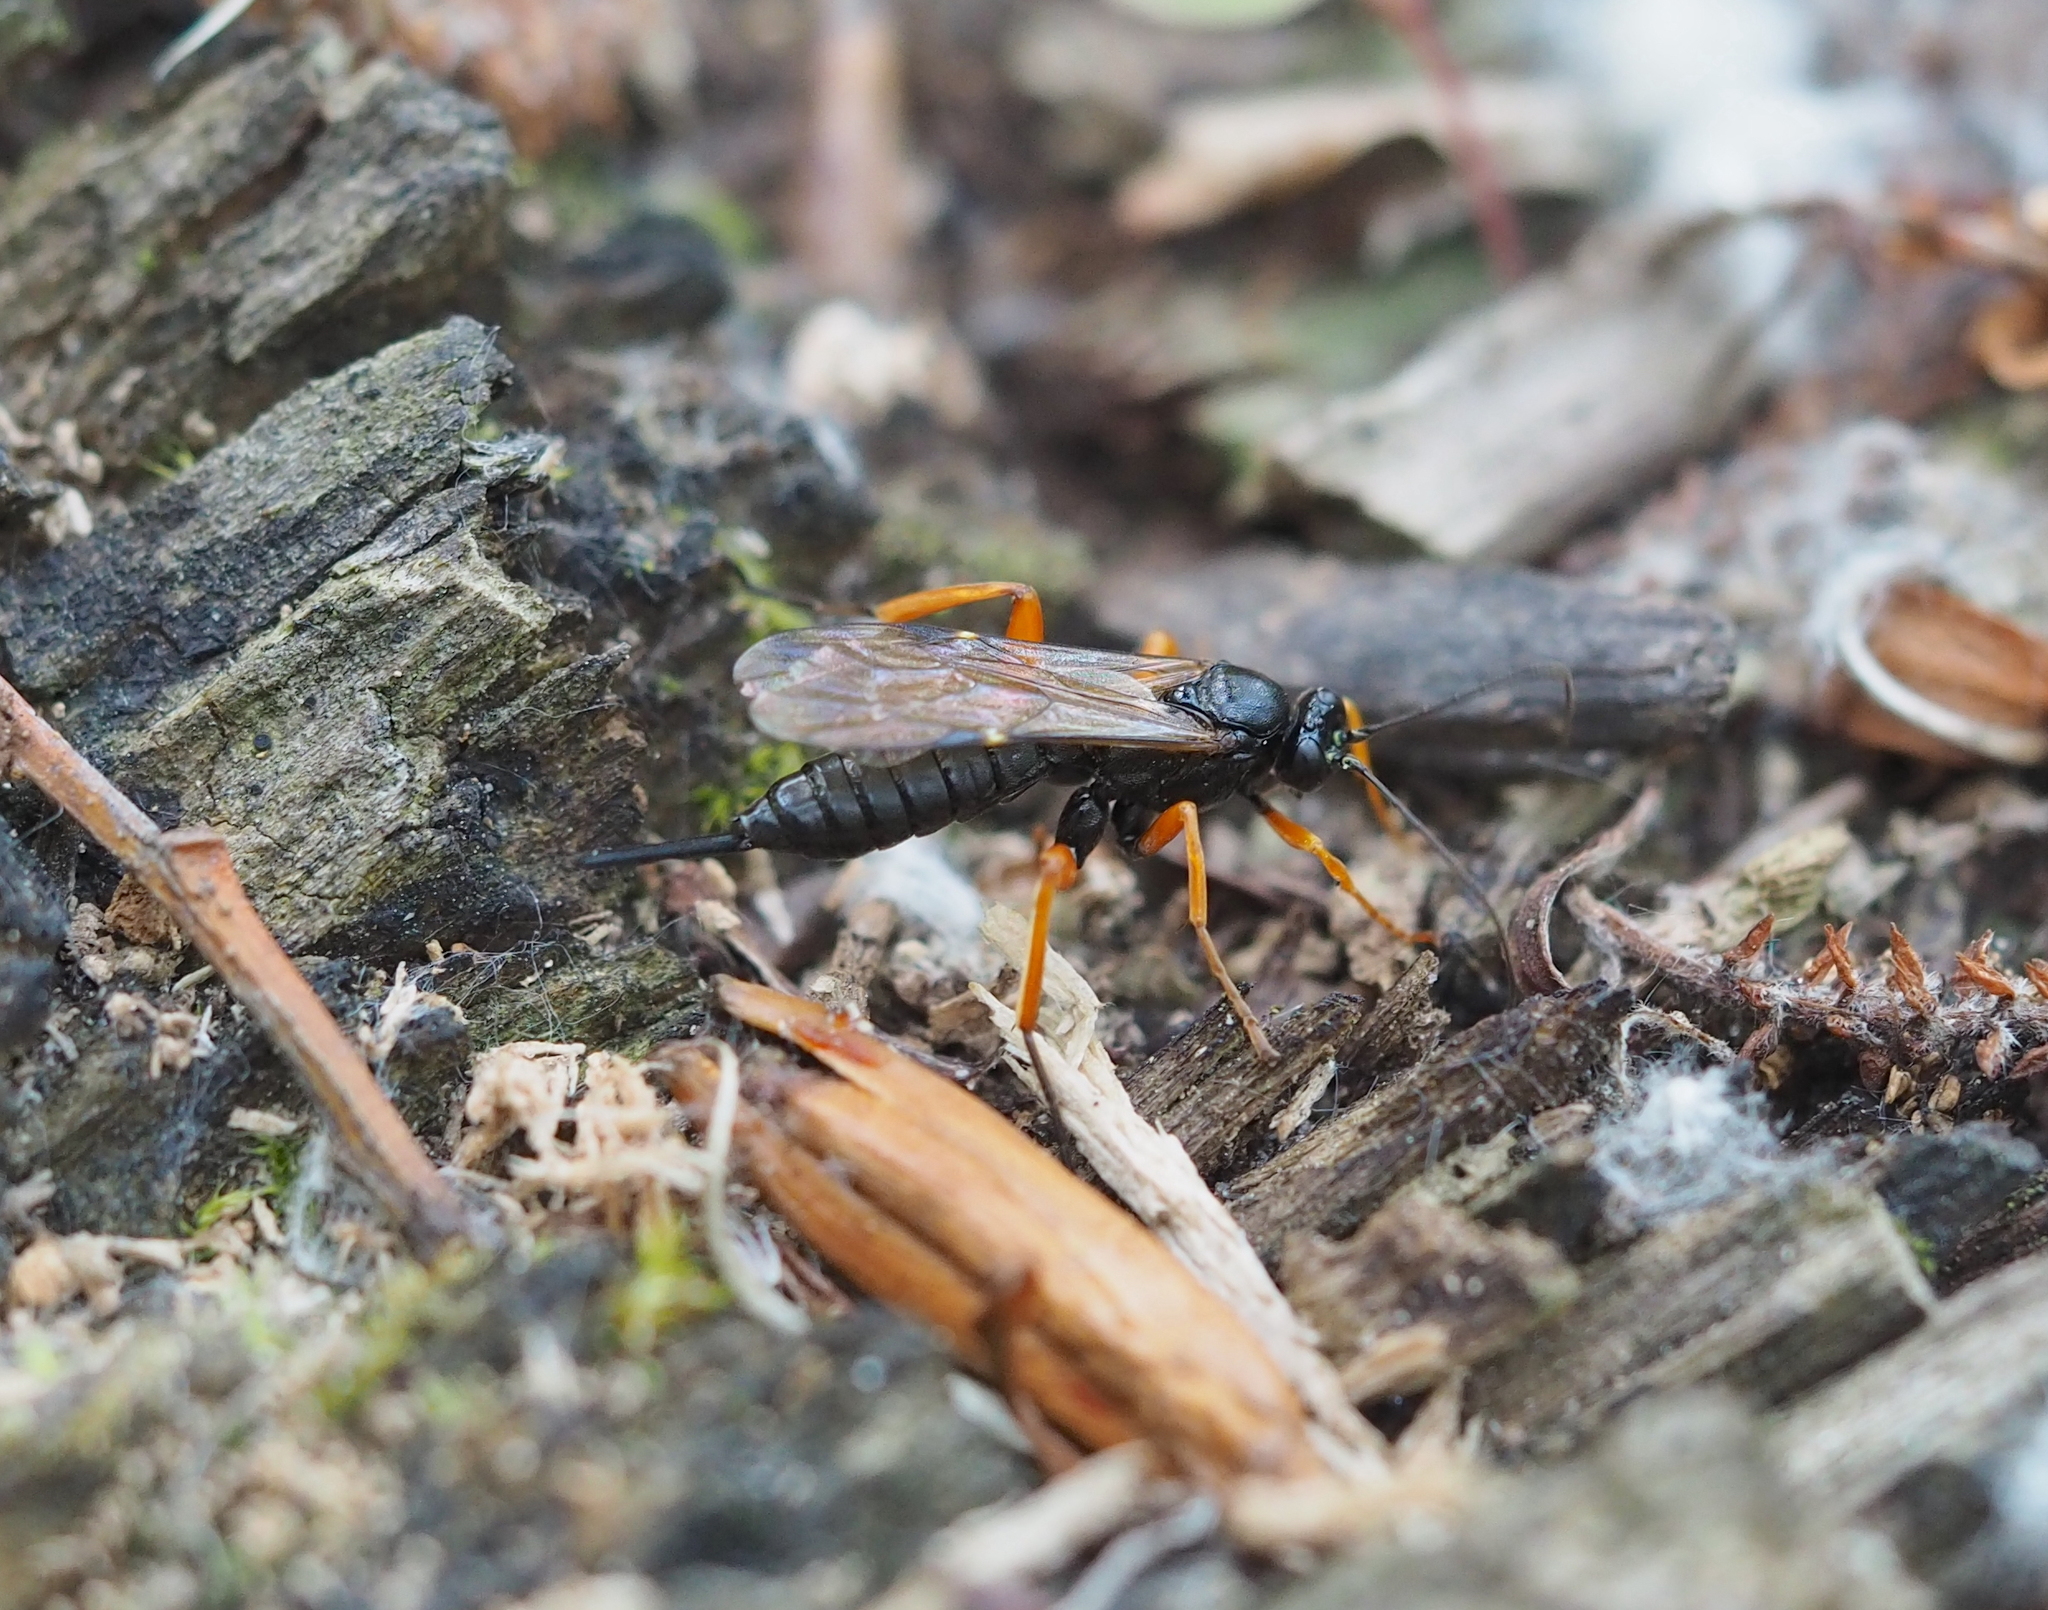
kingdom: Animalia
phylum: Arthropoda
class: Insecta
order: Hymenoptera
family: Ichneumonidae
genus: Pimpla
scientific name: Pimpla rufipes
